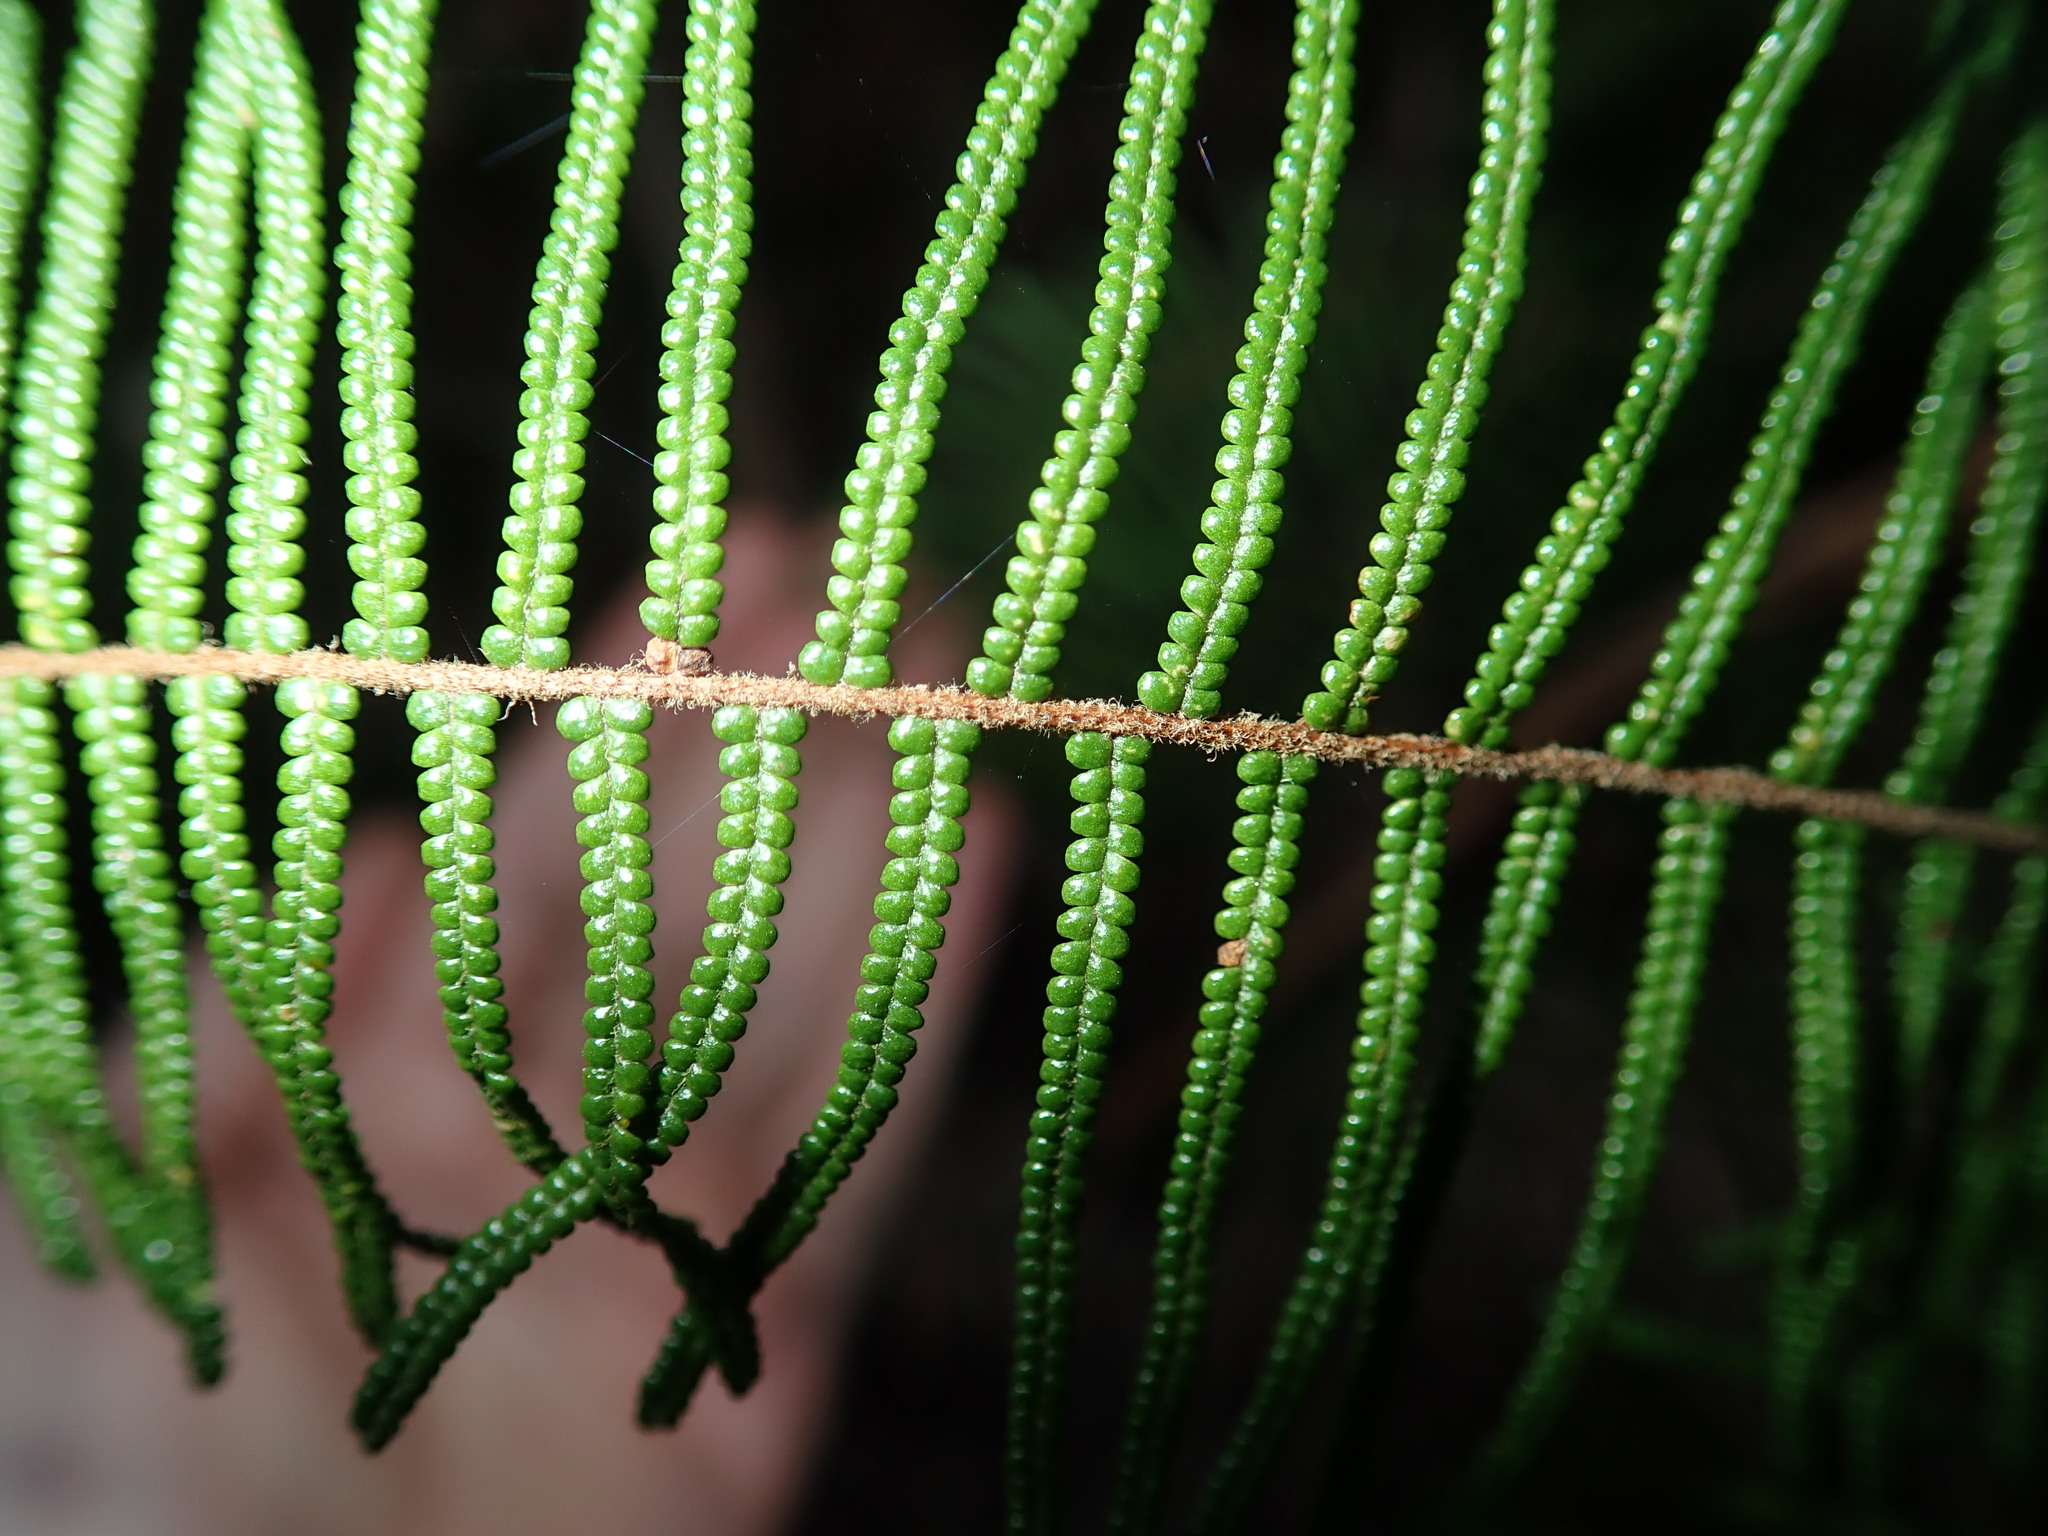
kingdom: Plantae
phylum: Tracheophyta
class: Polypodiopsida
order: Gleicheniales
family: Gleicheniaceae
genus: Gleichenia
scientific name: Gleichenia dicarpa
